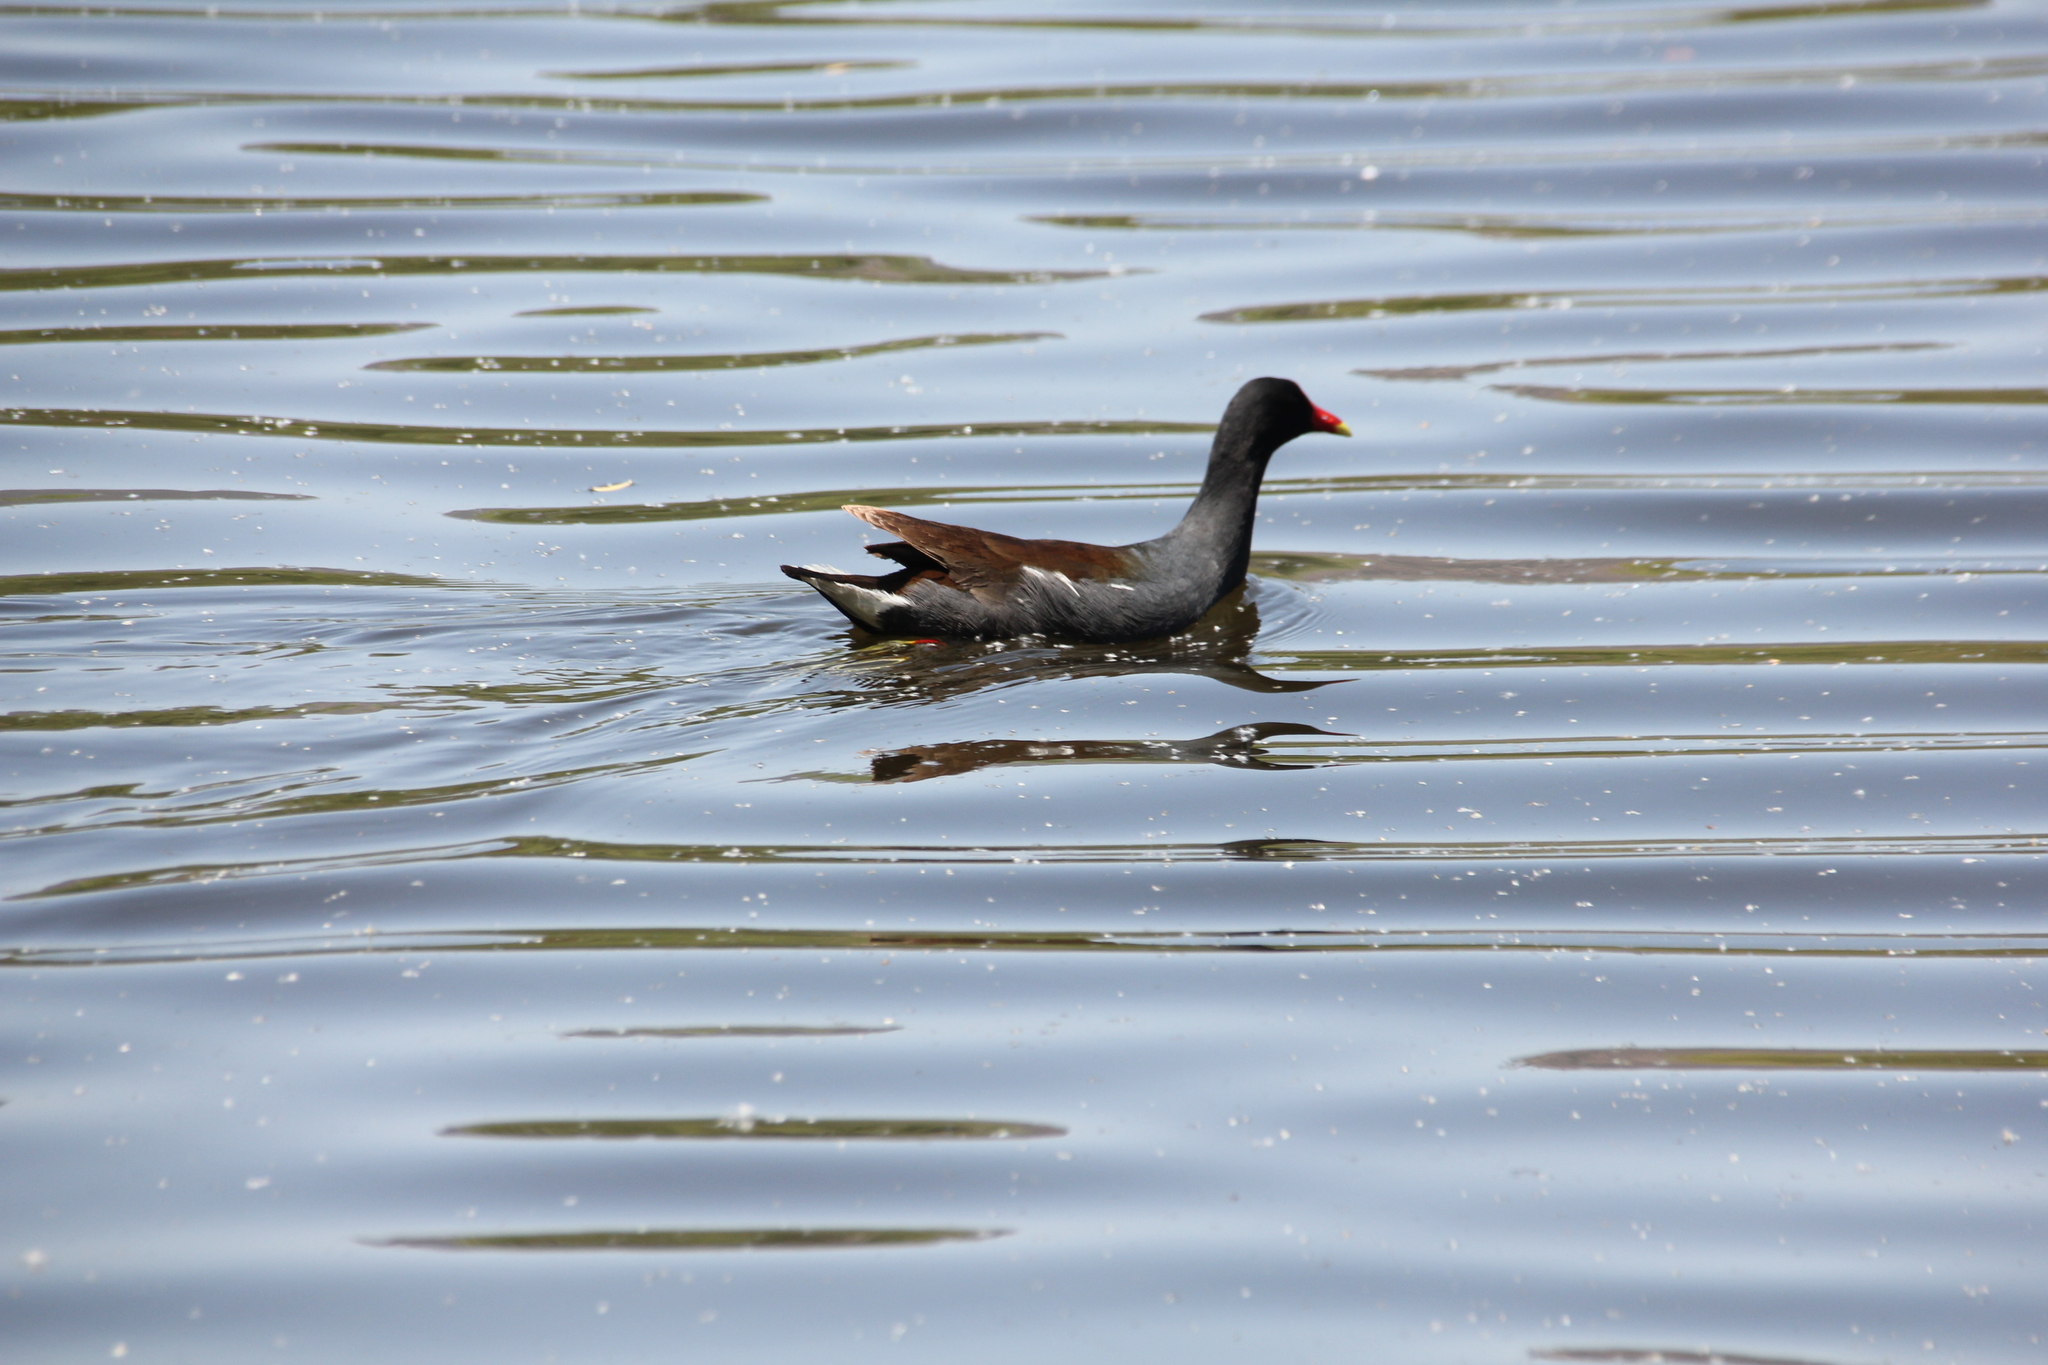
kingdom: Animalia
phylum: Chordata
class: Aves
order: Gruiformes
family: Rallidae
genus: Gallinula
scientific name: Gallinula chloropus
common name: Common moorhen
